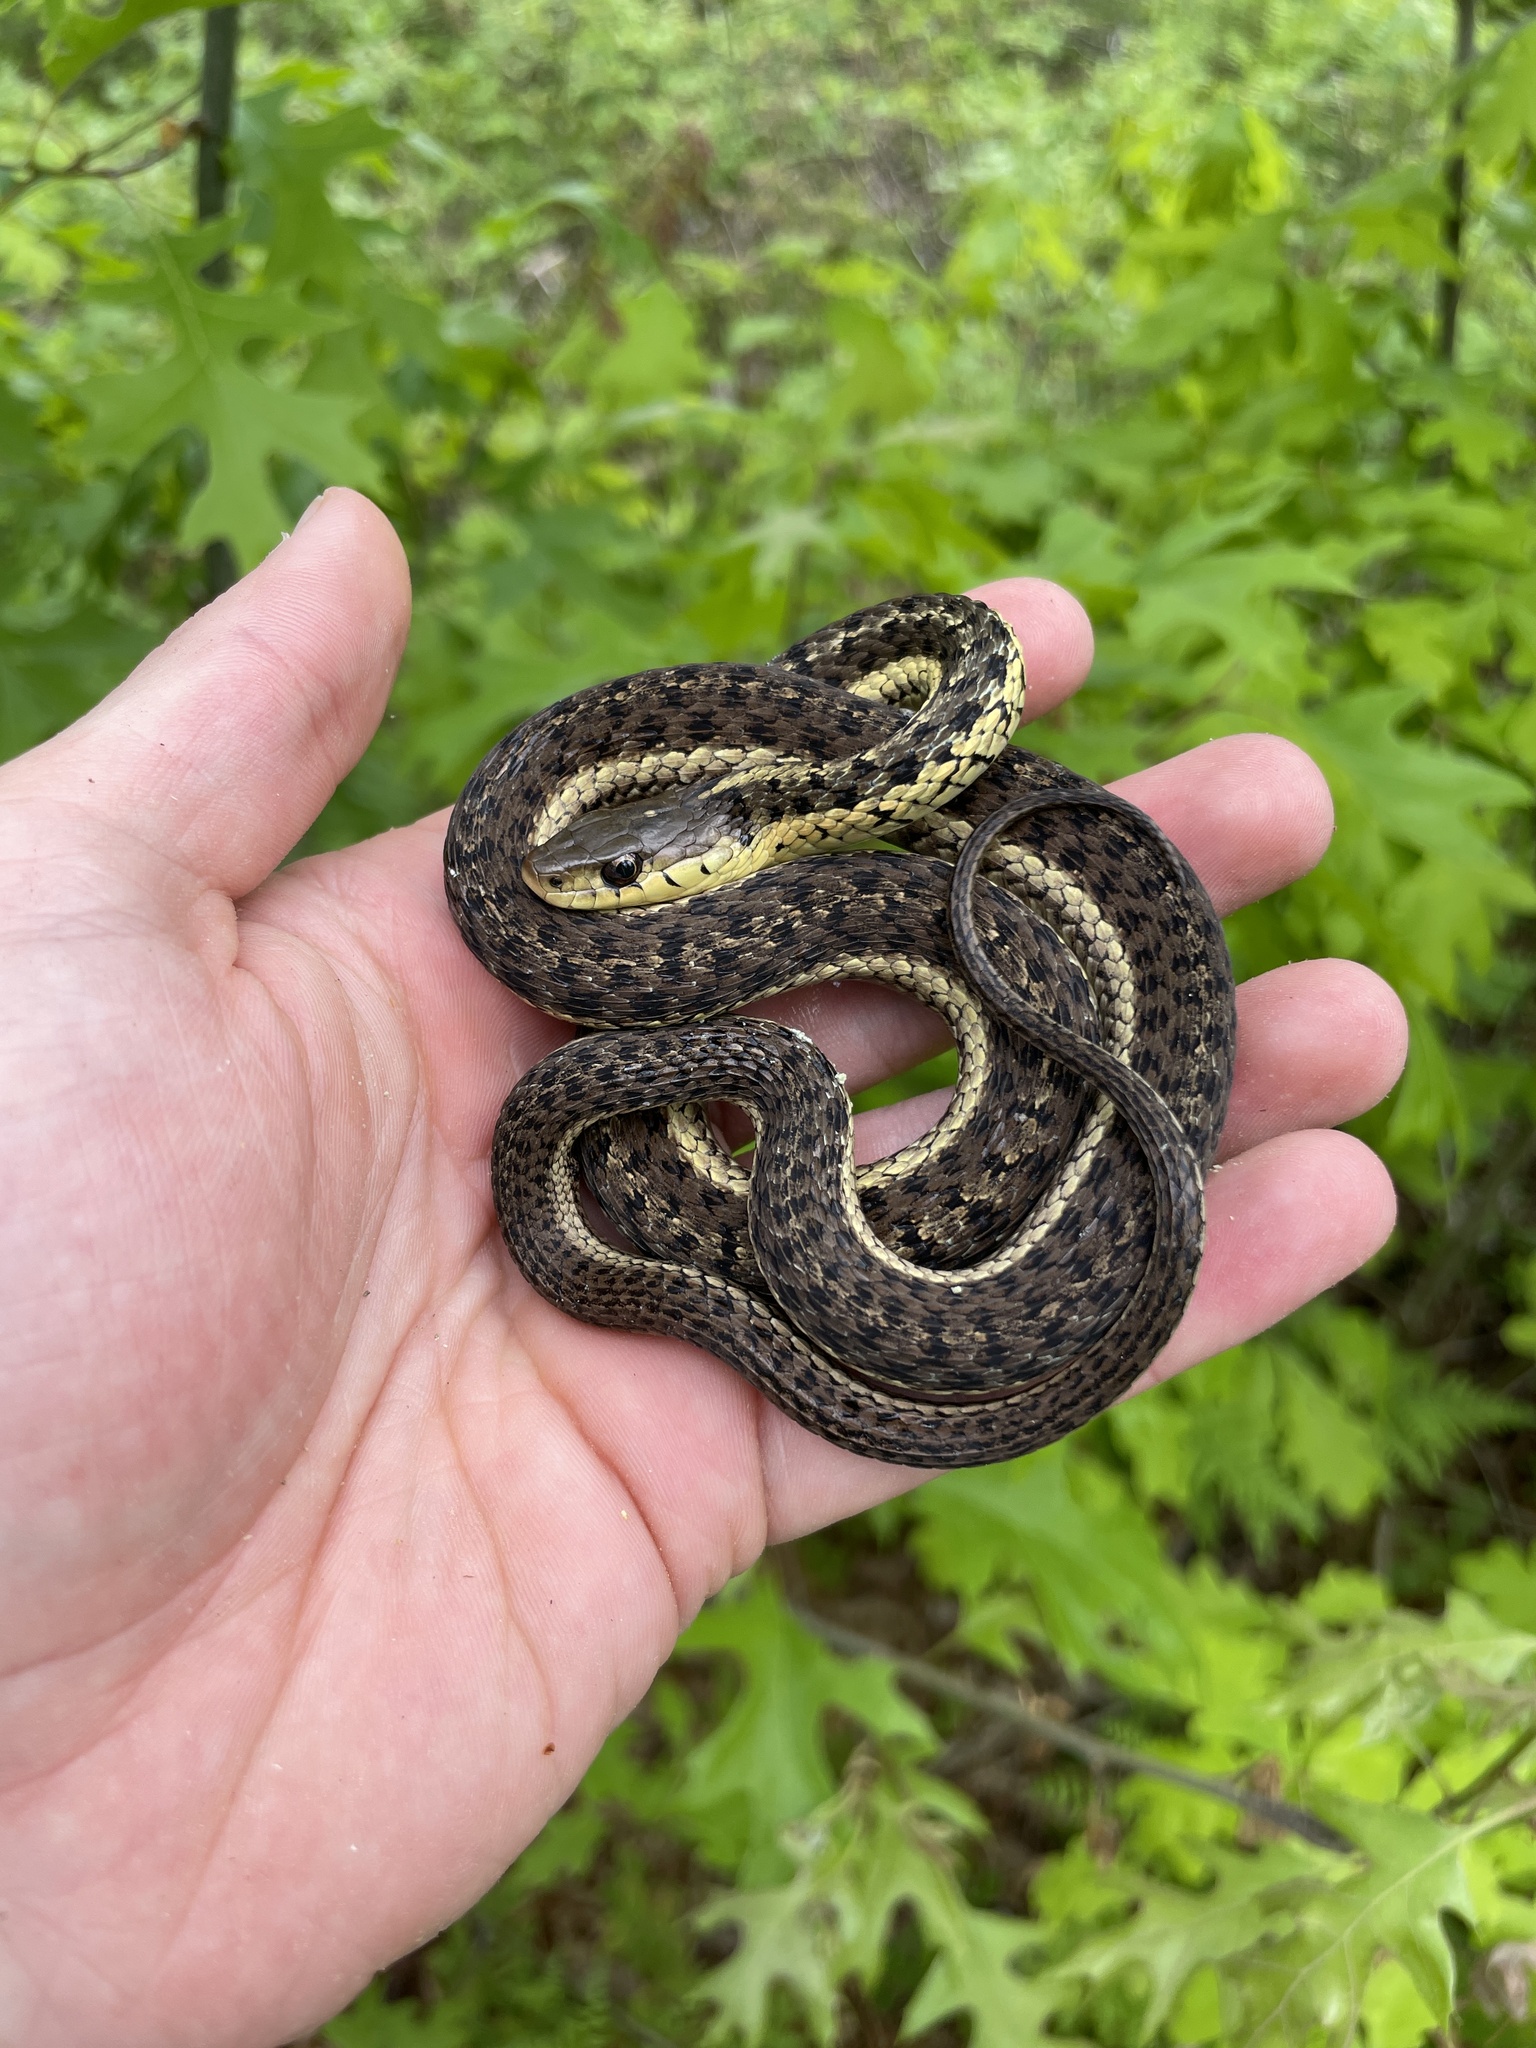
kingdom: Animalia
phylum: Chordata
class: Squamata
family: Colubridae
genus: Thamnophis
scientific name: Thamnophis sirtalis
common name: Common garter snake
